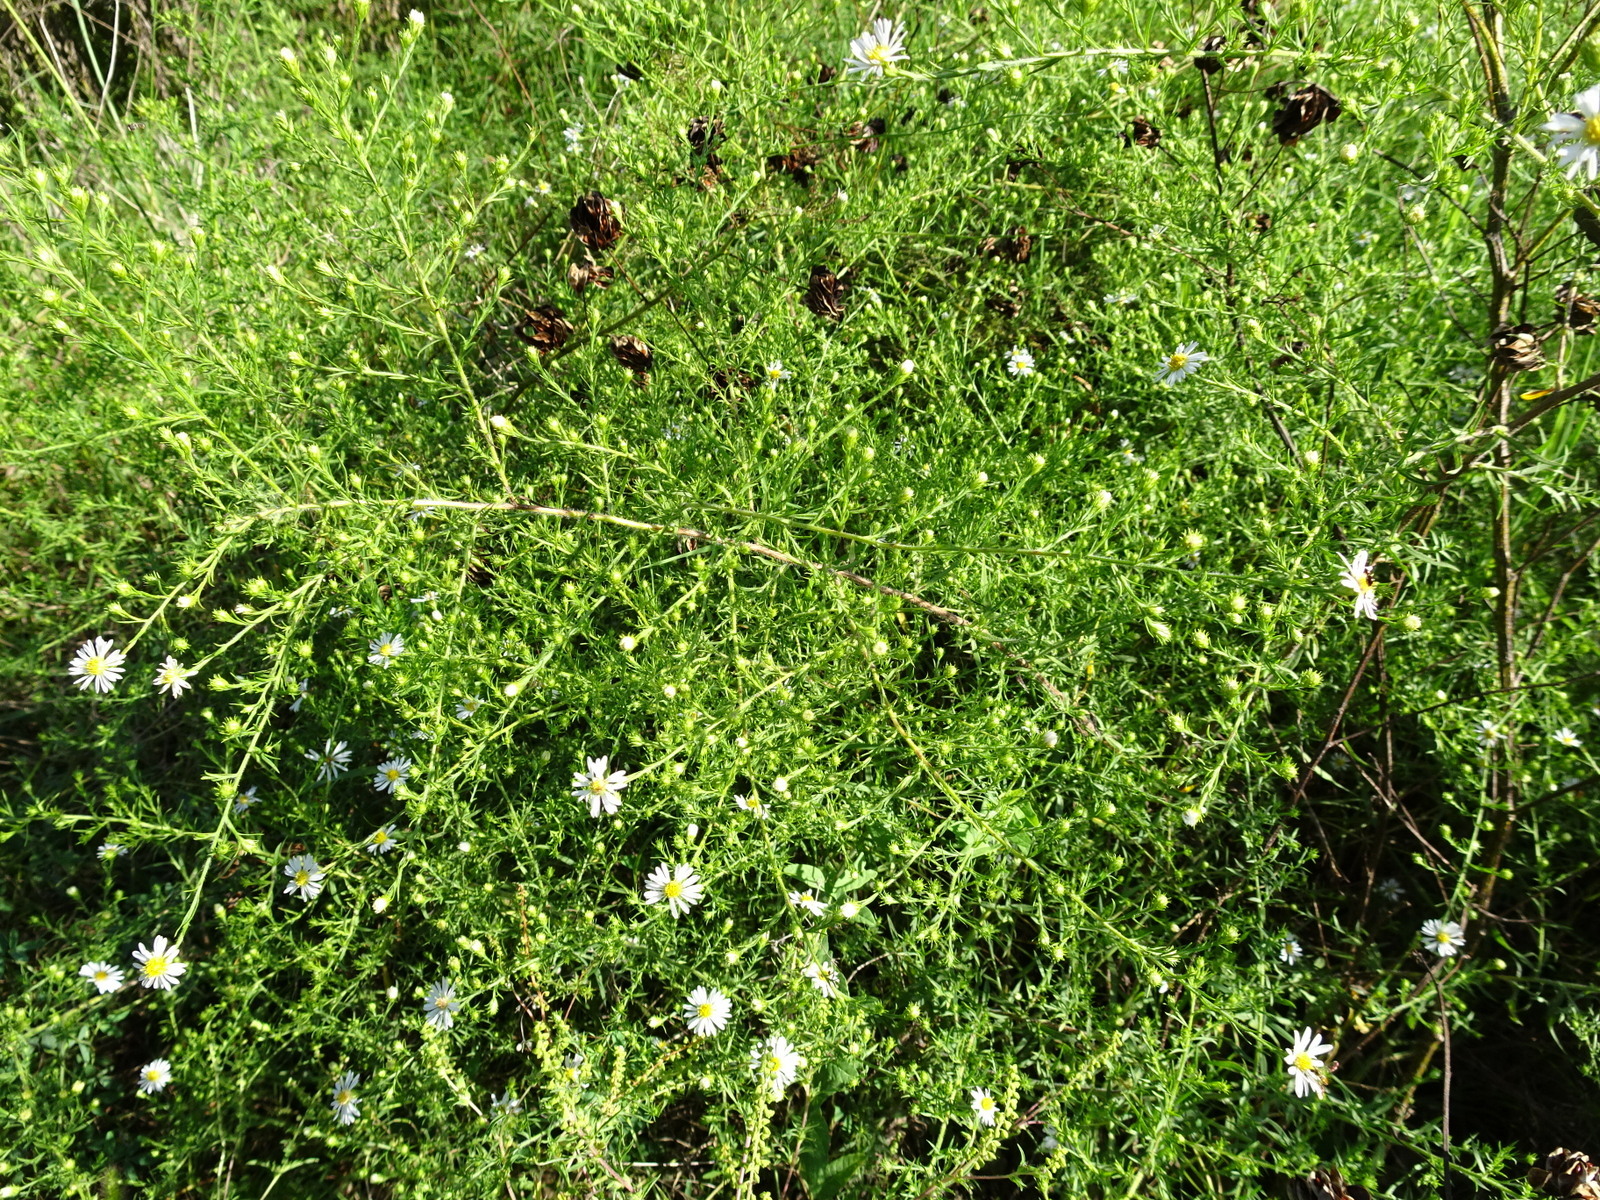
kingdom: Plantae
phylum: Tracheophyta
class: Magnoliopsida
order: Asterales
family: Asteraceae
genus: Symphyotrichum
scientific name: Symphyotrichum pilosum
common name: Awl aster
